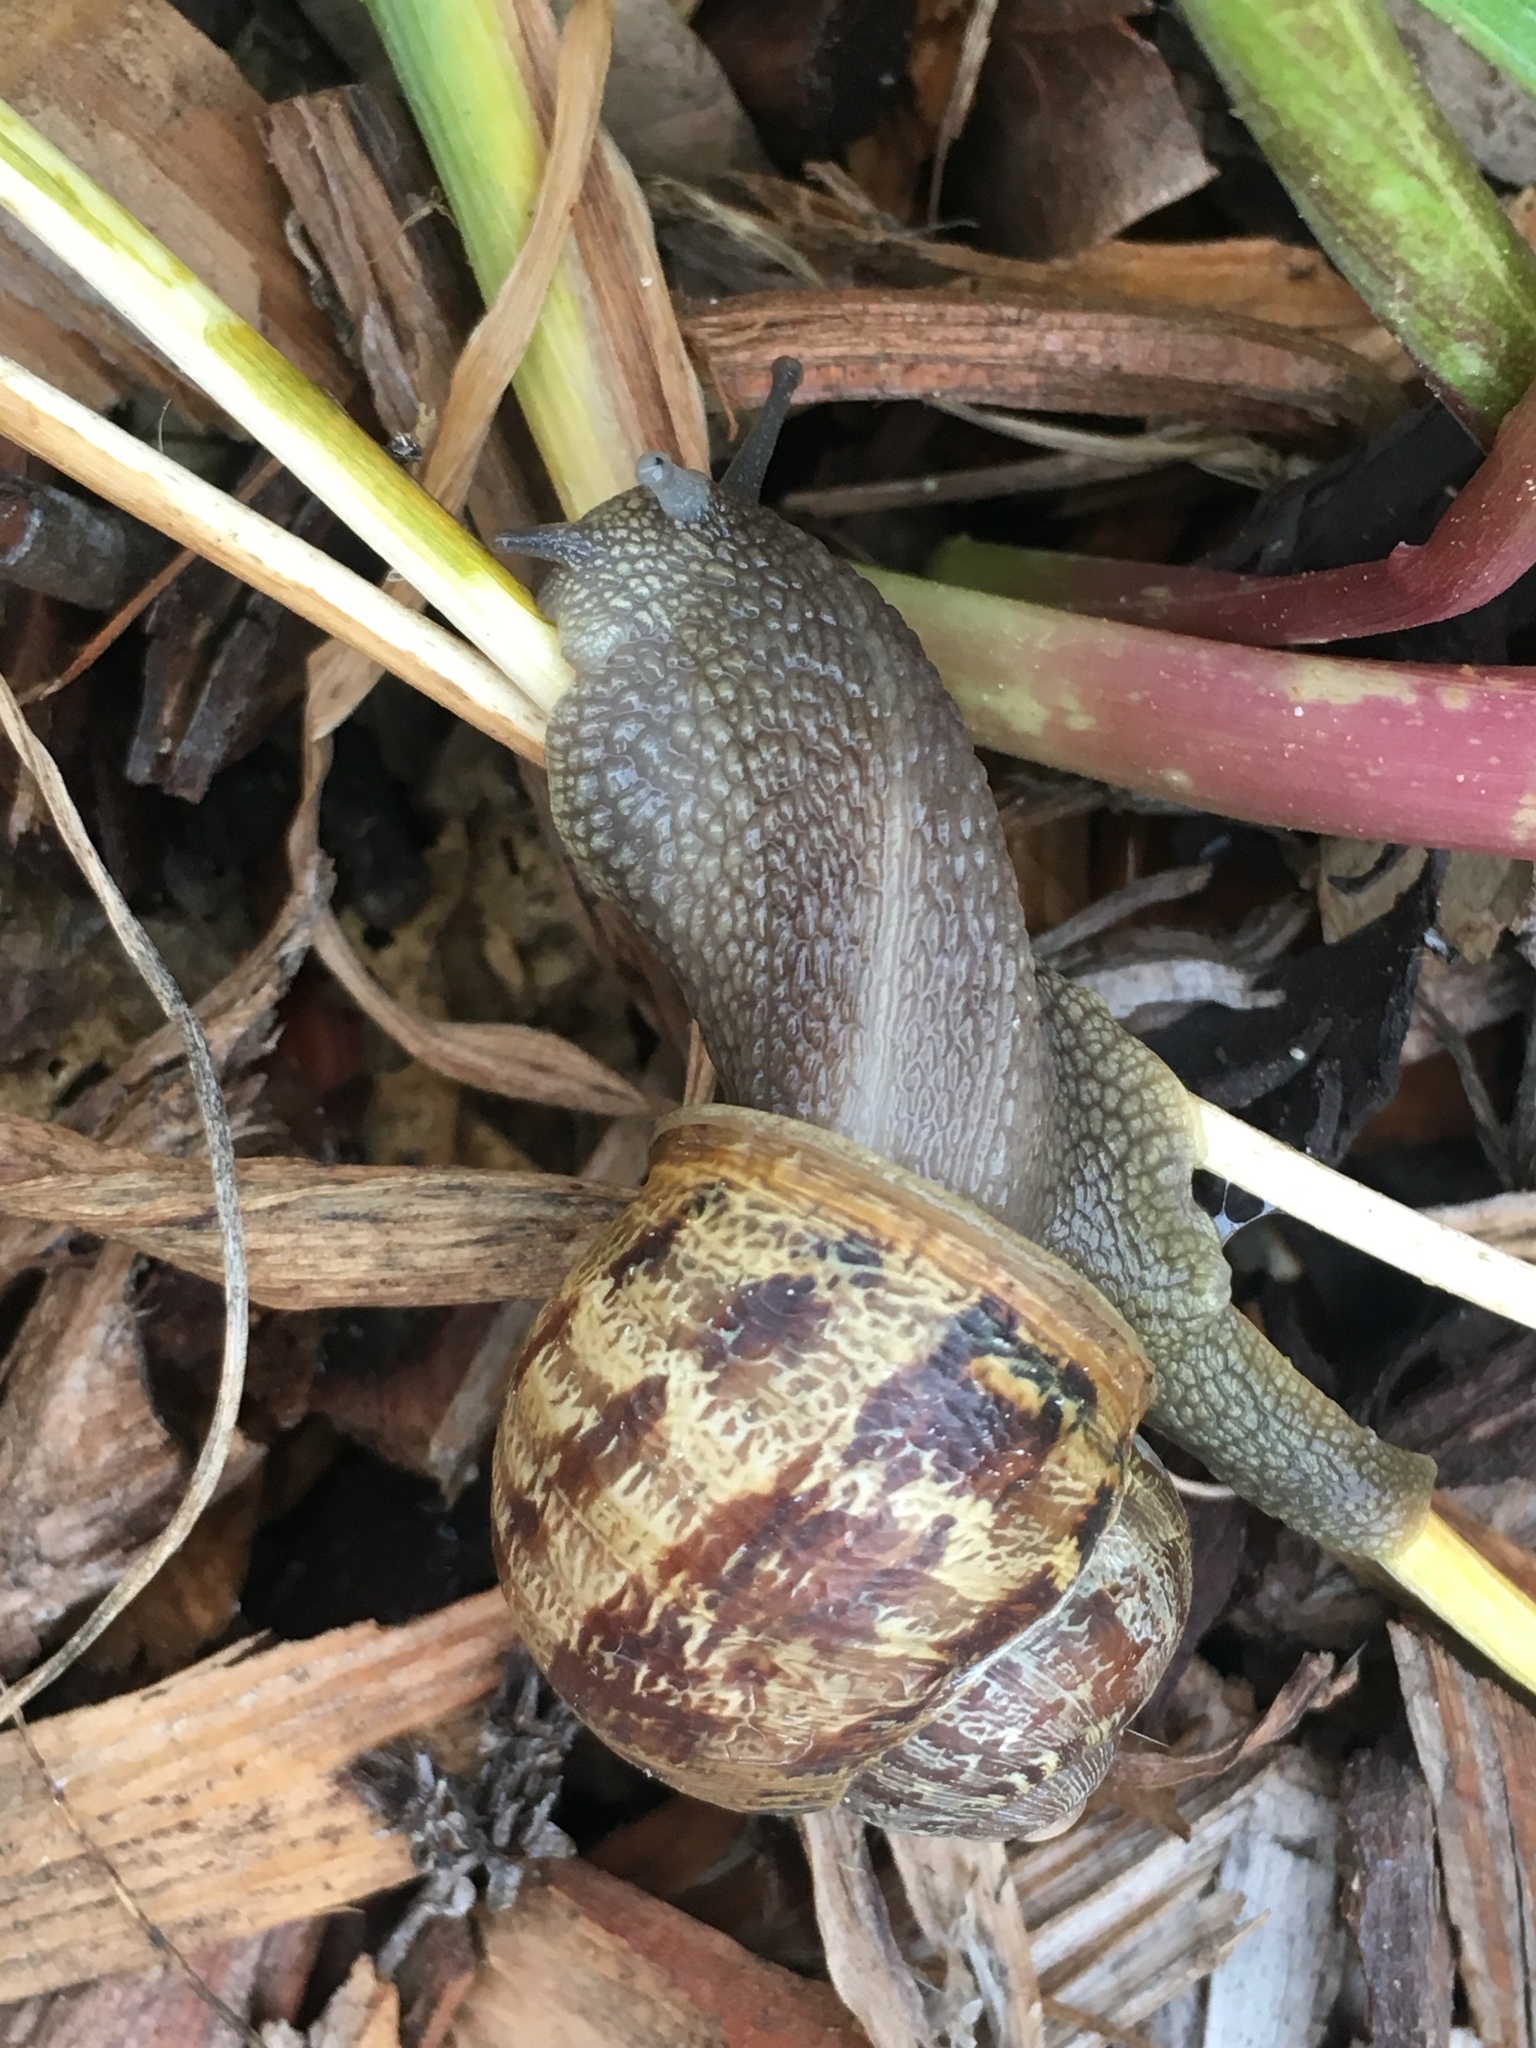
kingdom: Animalia
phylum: Mollusca
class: Gastropoda
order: Stylommatophora
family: Helicidae
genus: Cornu
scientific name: Cornu aspersum
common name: Brown garden snail
